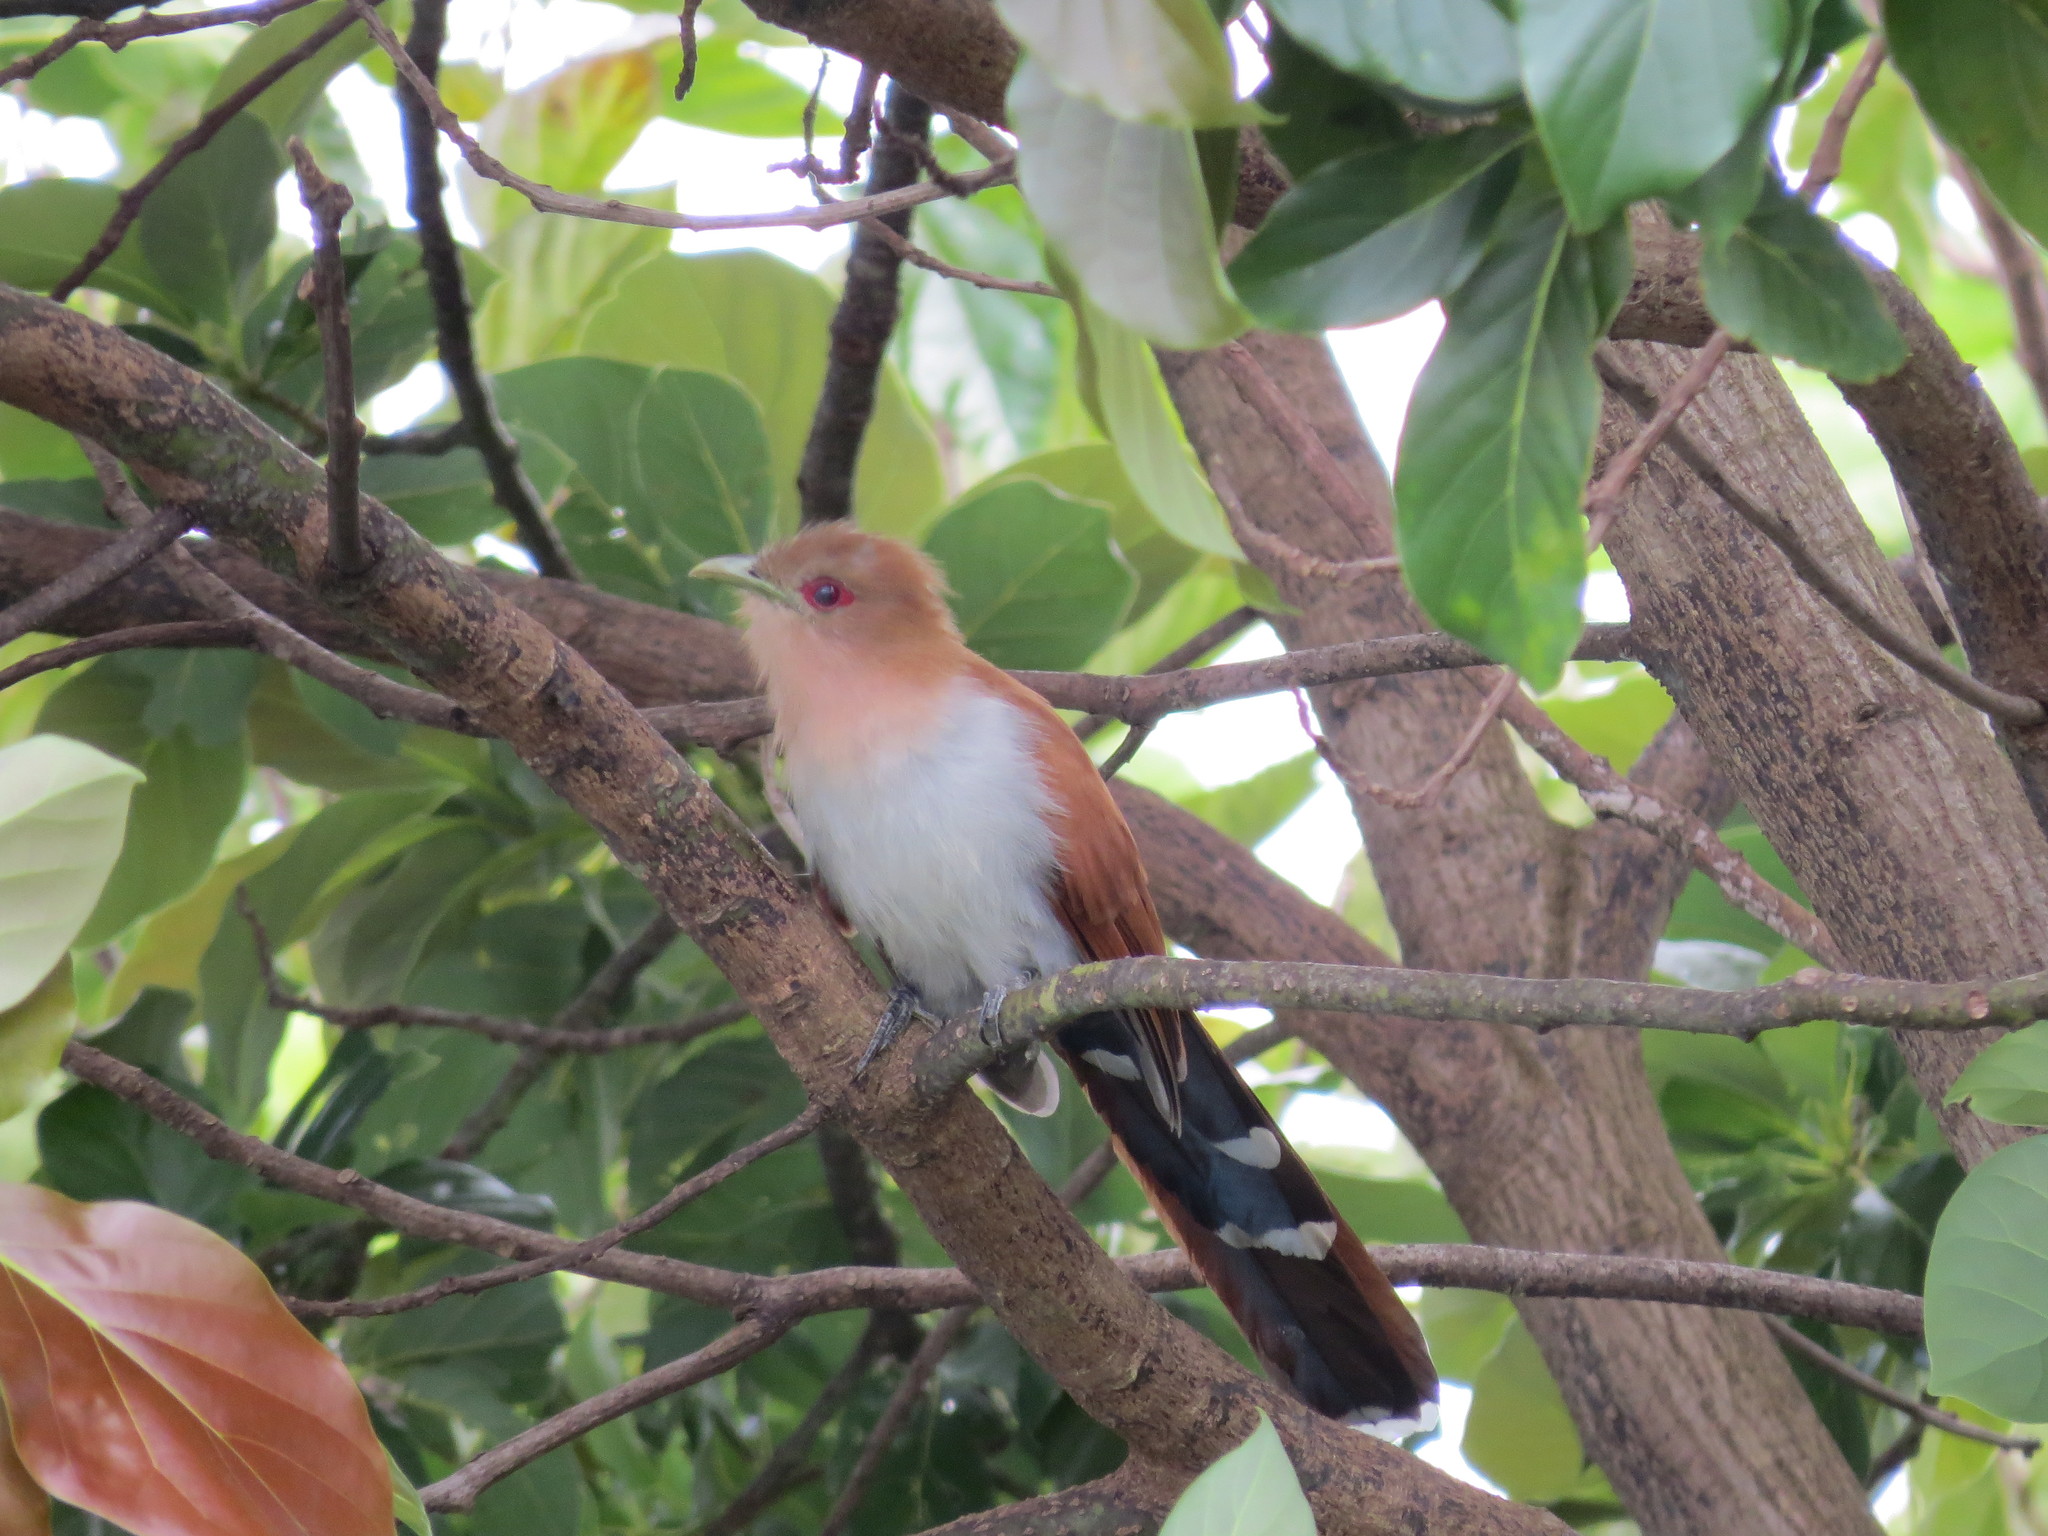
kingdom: Animalia
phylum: Chordata
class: Aves
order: Cuculiformes
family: Cuculidae
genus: Piaya
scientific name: Piaya cayana
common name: Squirrel cuckoo
